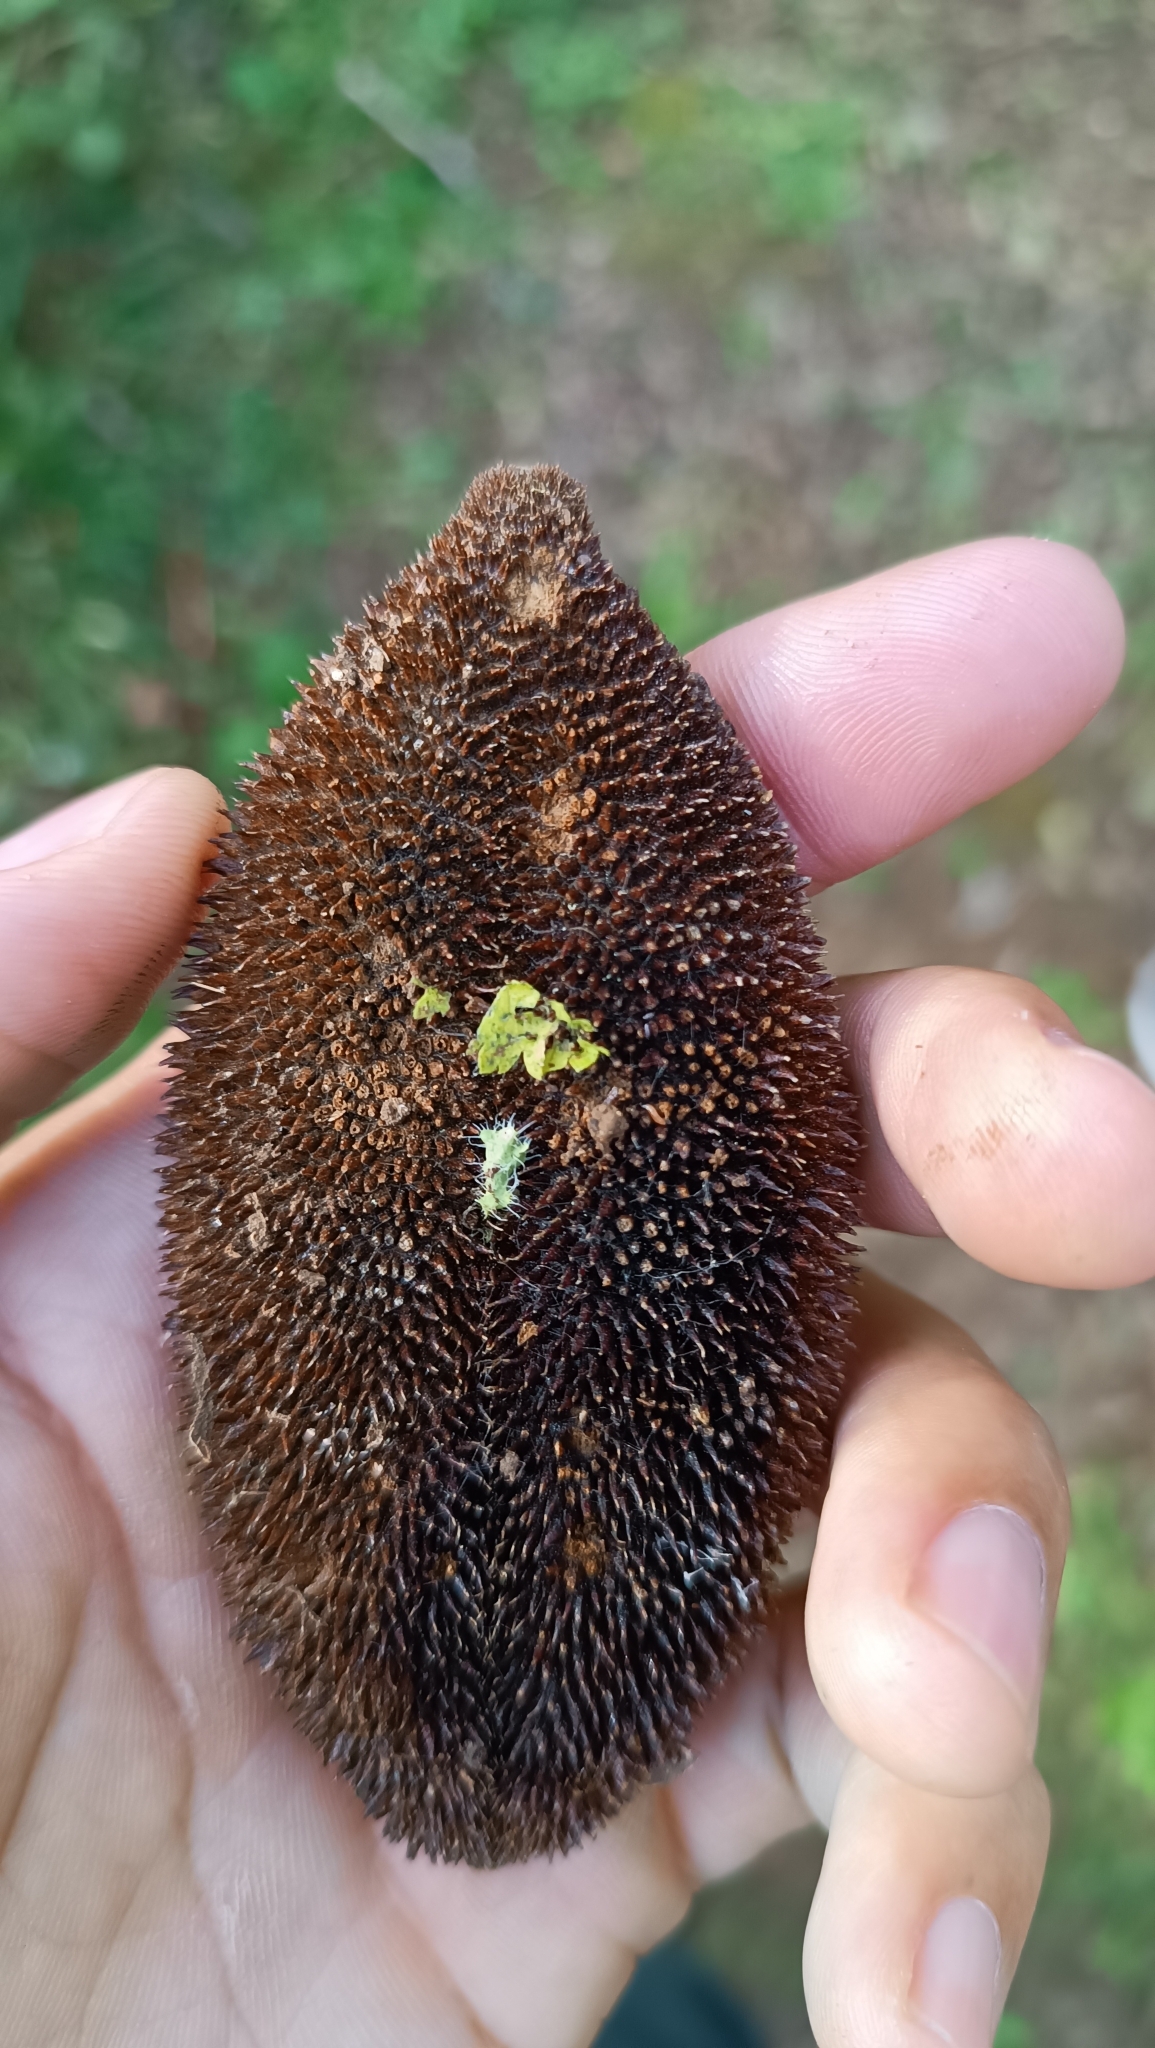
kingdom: Plantae
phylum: Tracheophyta
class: Magnoliopsida
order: Lamiales
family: Bignoniaceae
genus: Amphilophium
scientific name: Amphilophium crucigerum
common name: Monkey comb
